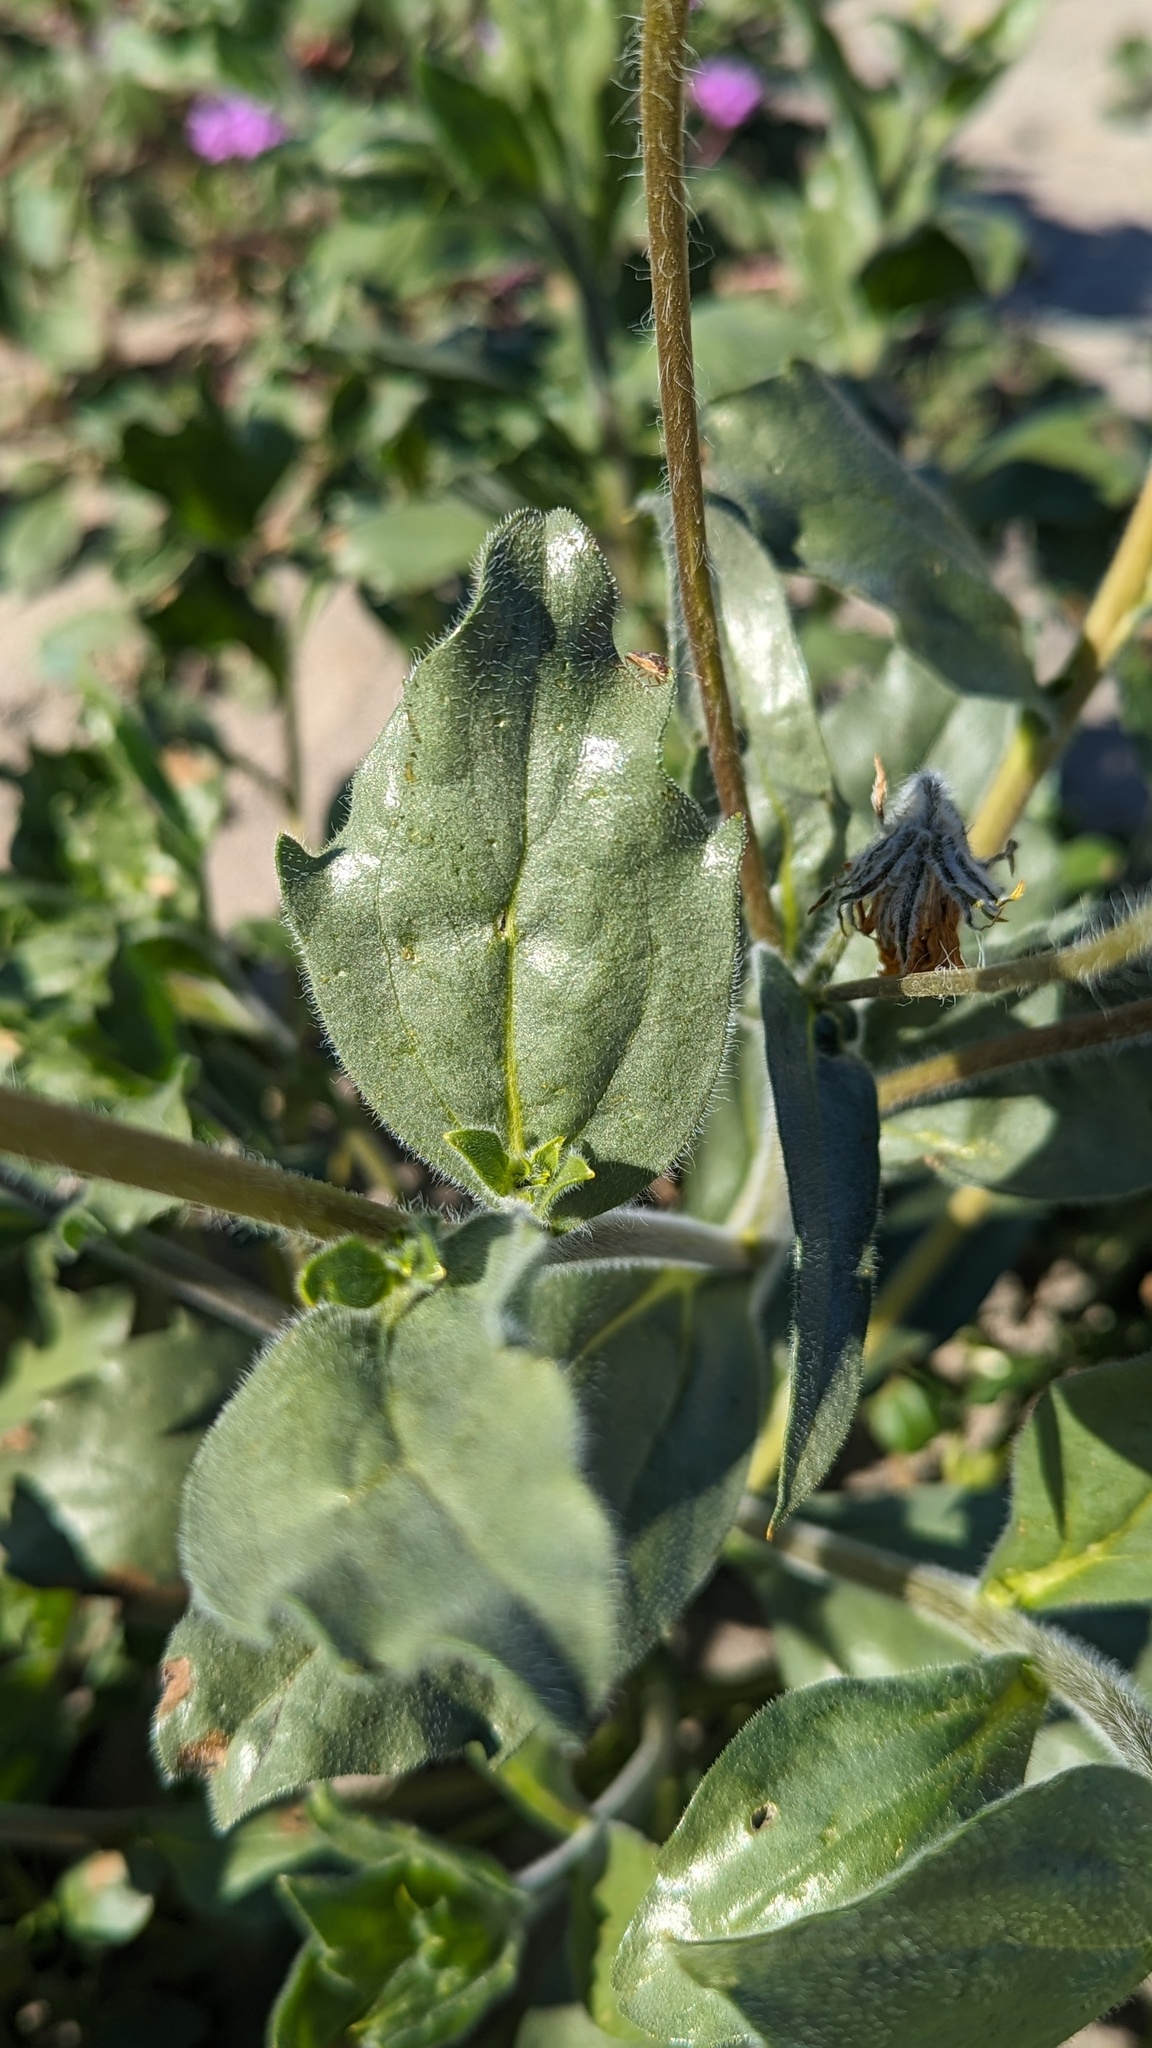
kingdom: Plantae
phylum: Tracheophyta
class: Magnoliopsida
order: Asterales
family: Asteraceae
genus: Geraea
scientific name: Geraea canescens
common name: Desert-gold
